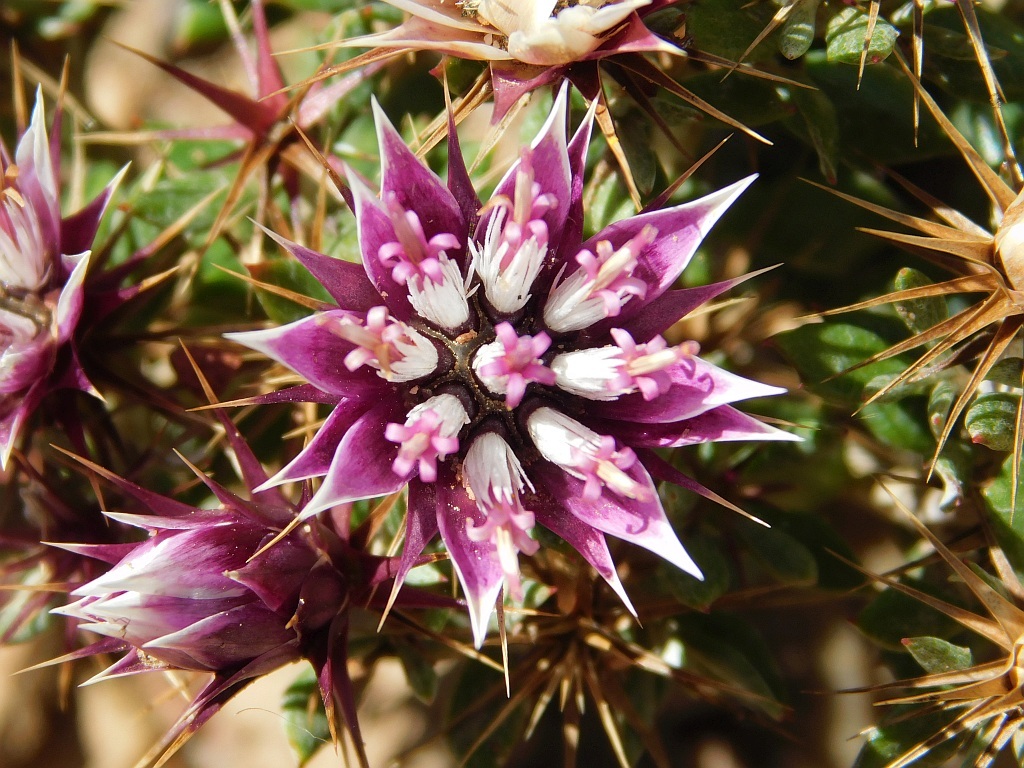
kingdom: Plantae
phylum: Tracheophyta
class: Magnoliopsida
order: Asterales
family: Asteraceae
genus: Macledium
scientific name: Macledium spinosum
